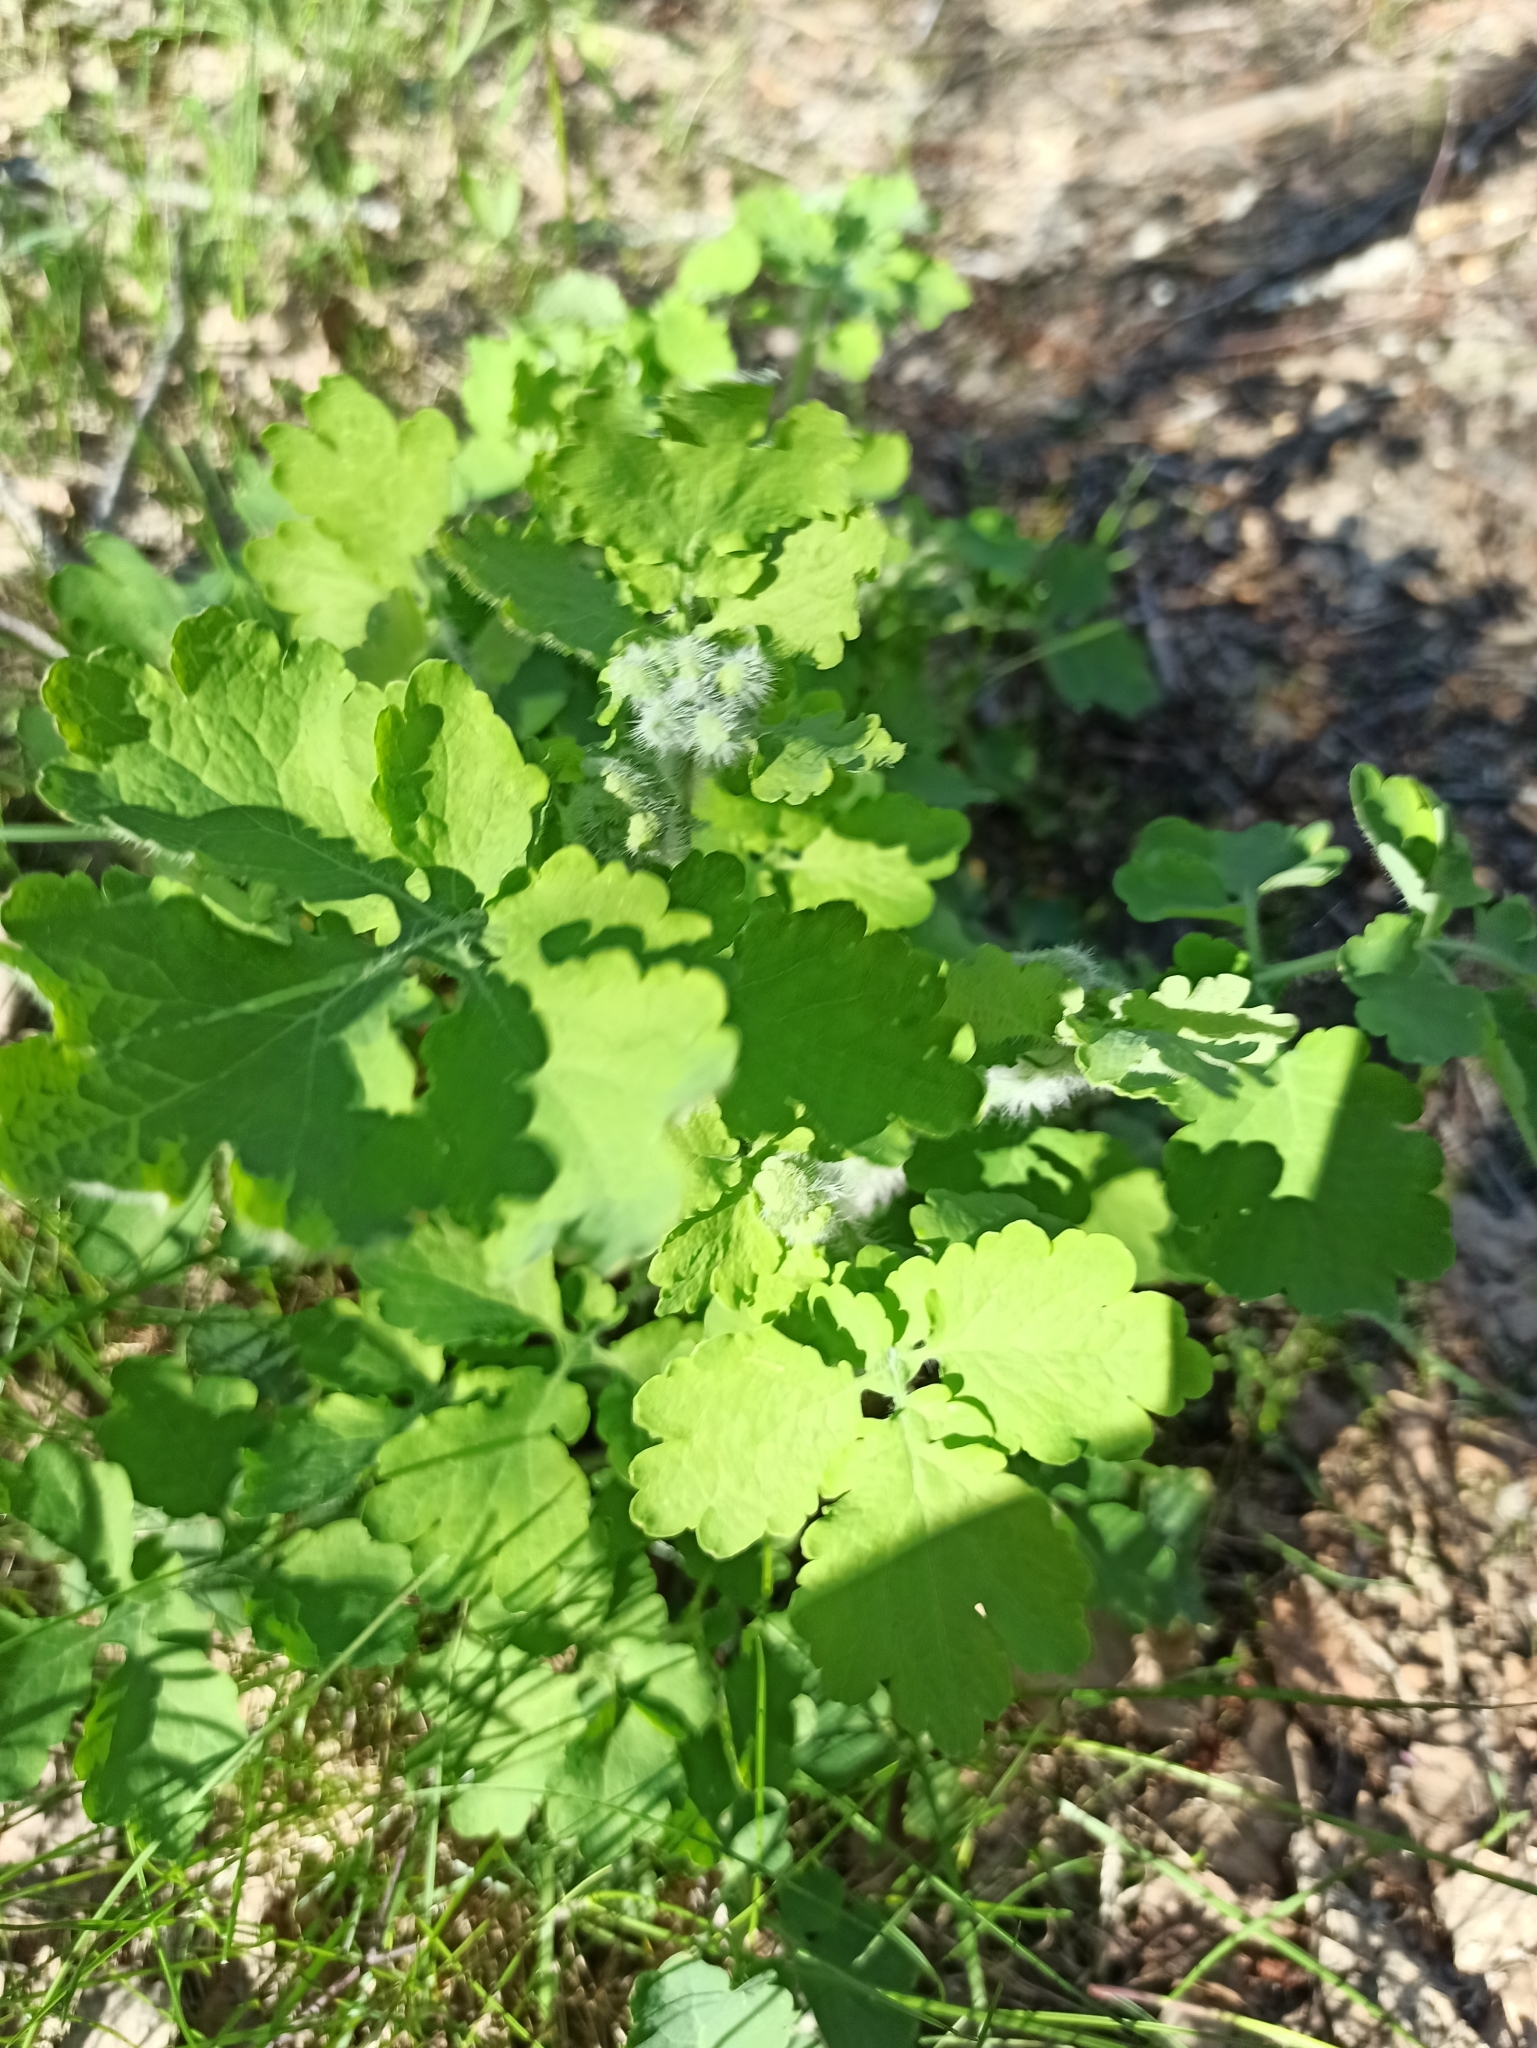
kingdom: Plantae
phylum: Tracheophyta
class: Magnoliopsida
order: Ranunculales
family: Papaveraceae
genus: Chelidonium
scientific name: Chelidonium majus
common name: Greater celandine
